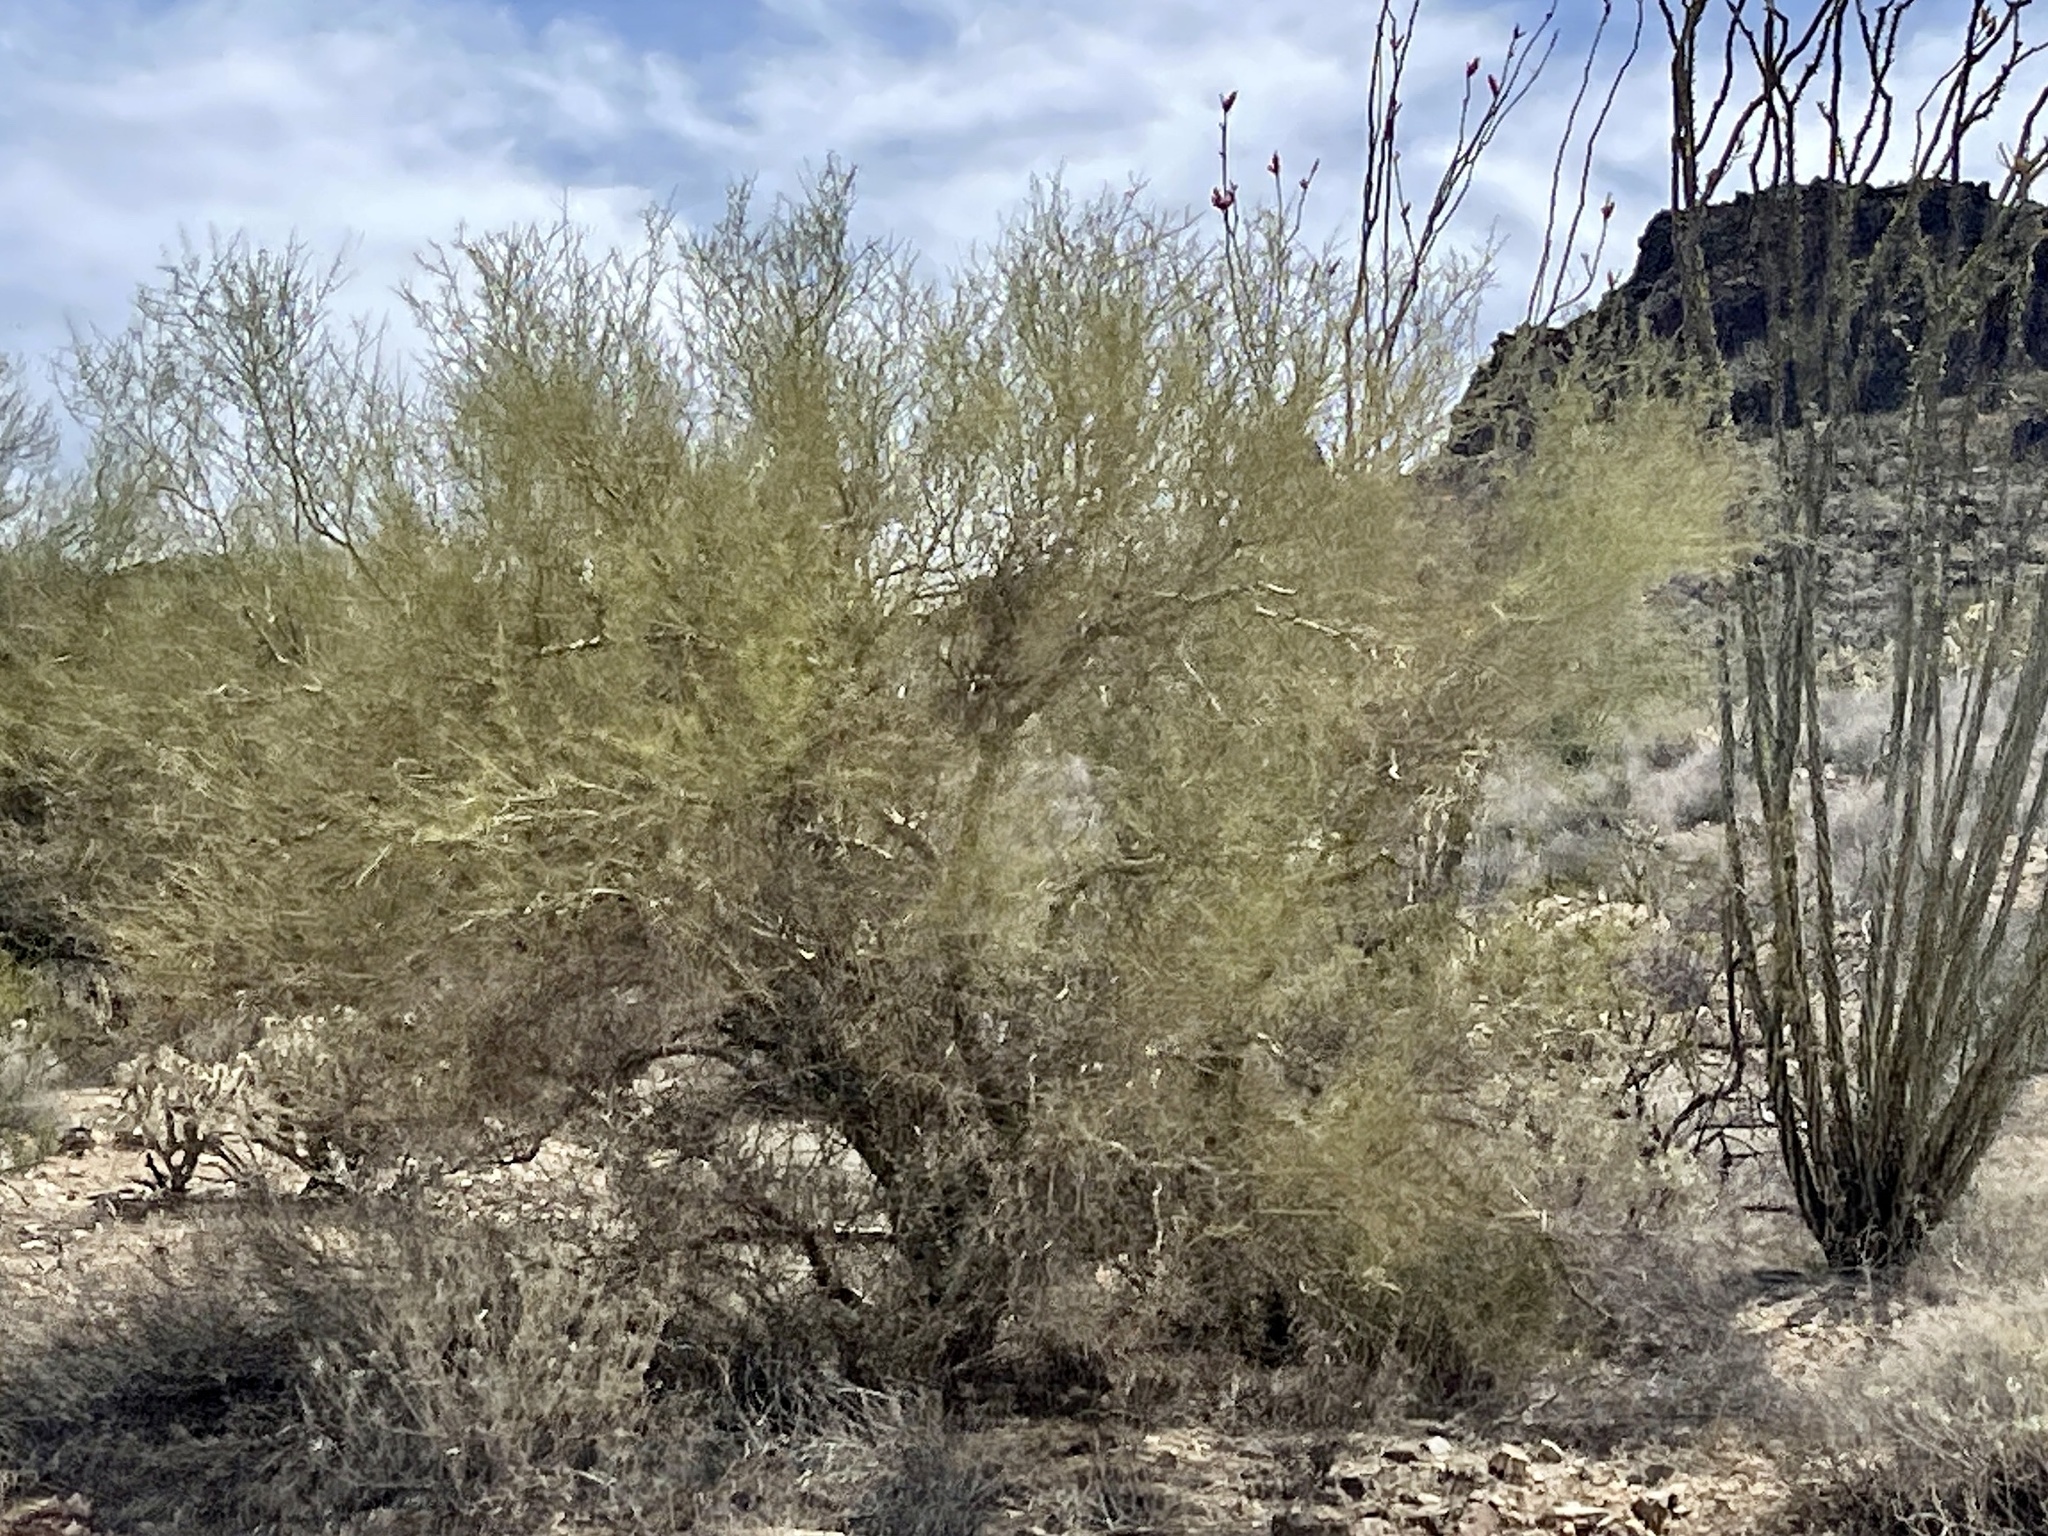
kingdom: Plantae
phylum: Tracheophyta
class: Magnoliopsida
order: Fabales
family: Fabaceae
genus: Parkinsonia
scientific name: Parkinsonia microphylla
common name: Yellow paloverde
